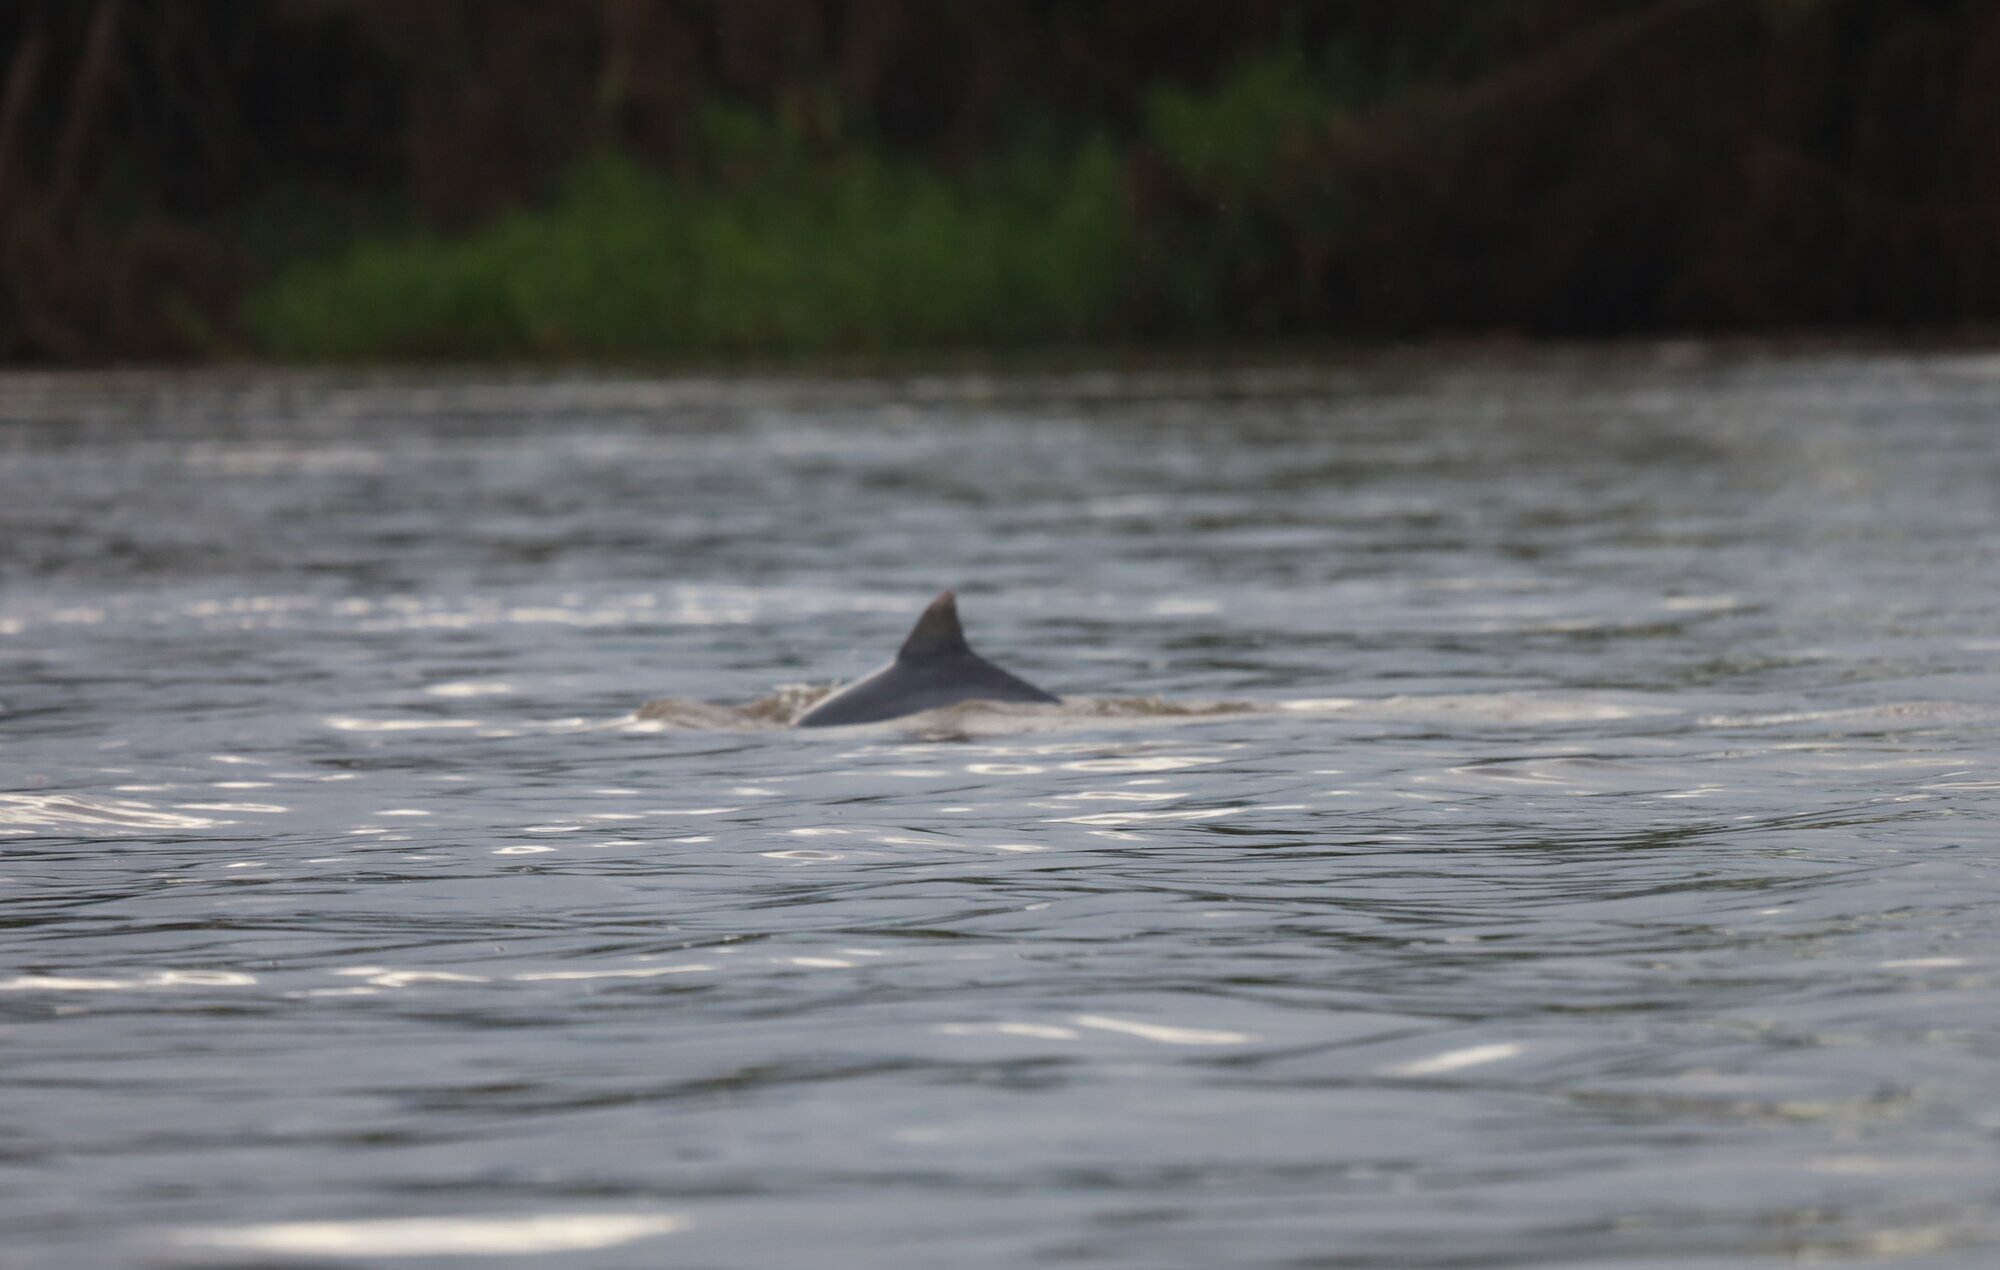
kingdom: Animalia
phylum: Chordata
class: Mammalia
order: Cetacea
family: Delphinidae
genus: Sotalia
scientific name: Sotalia fluviatilis
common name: Tucuxi
